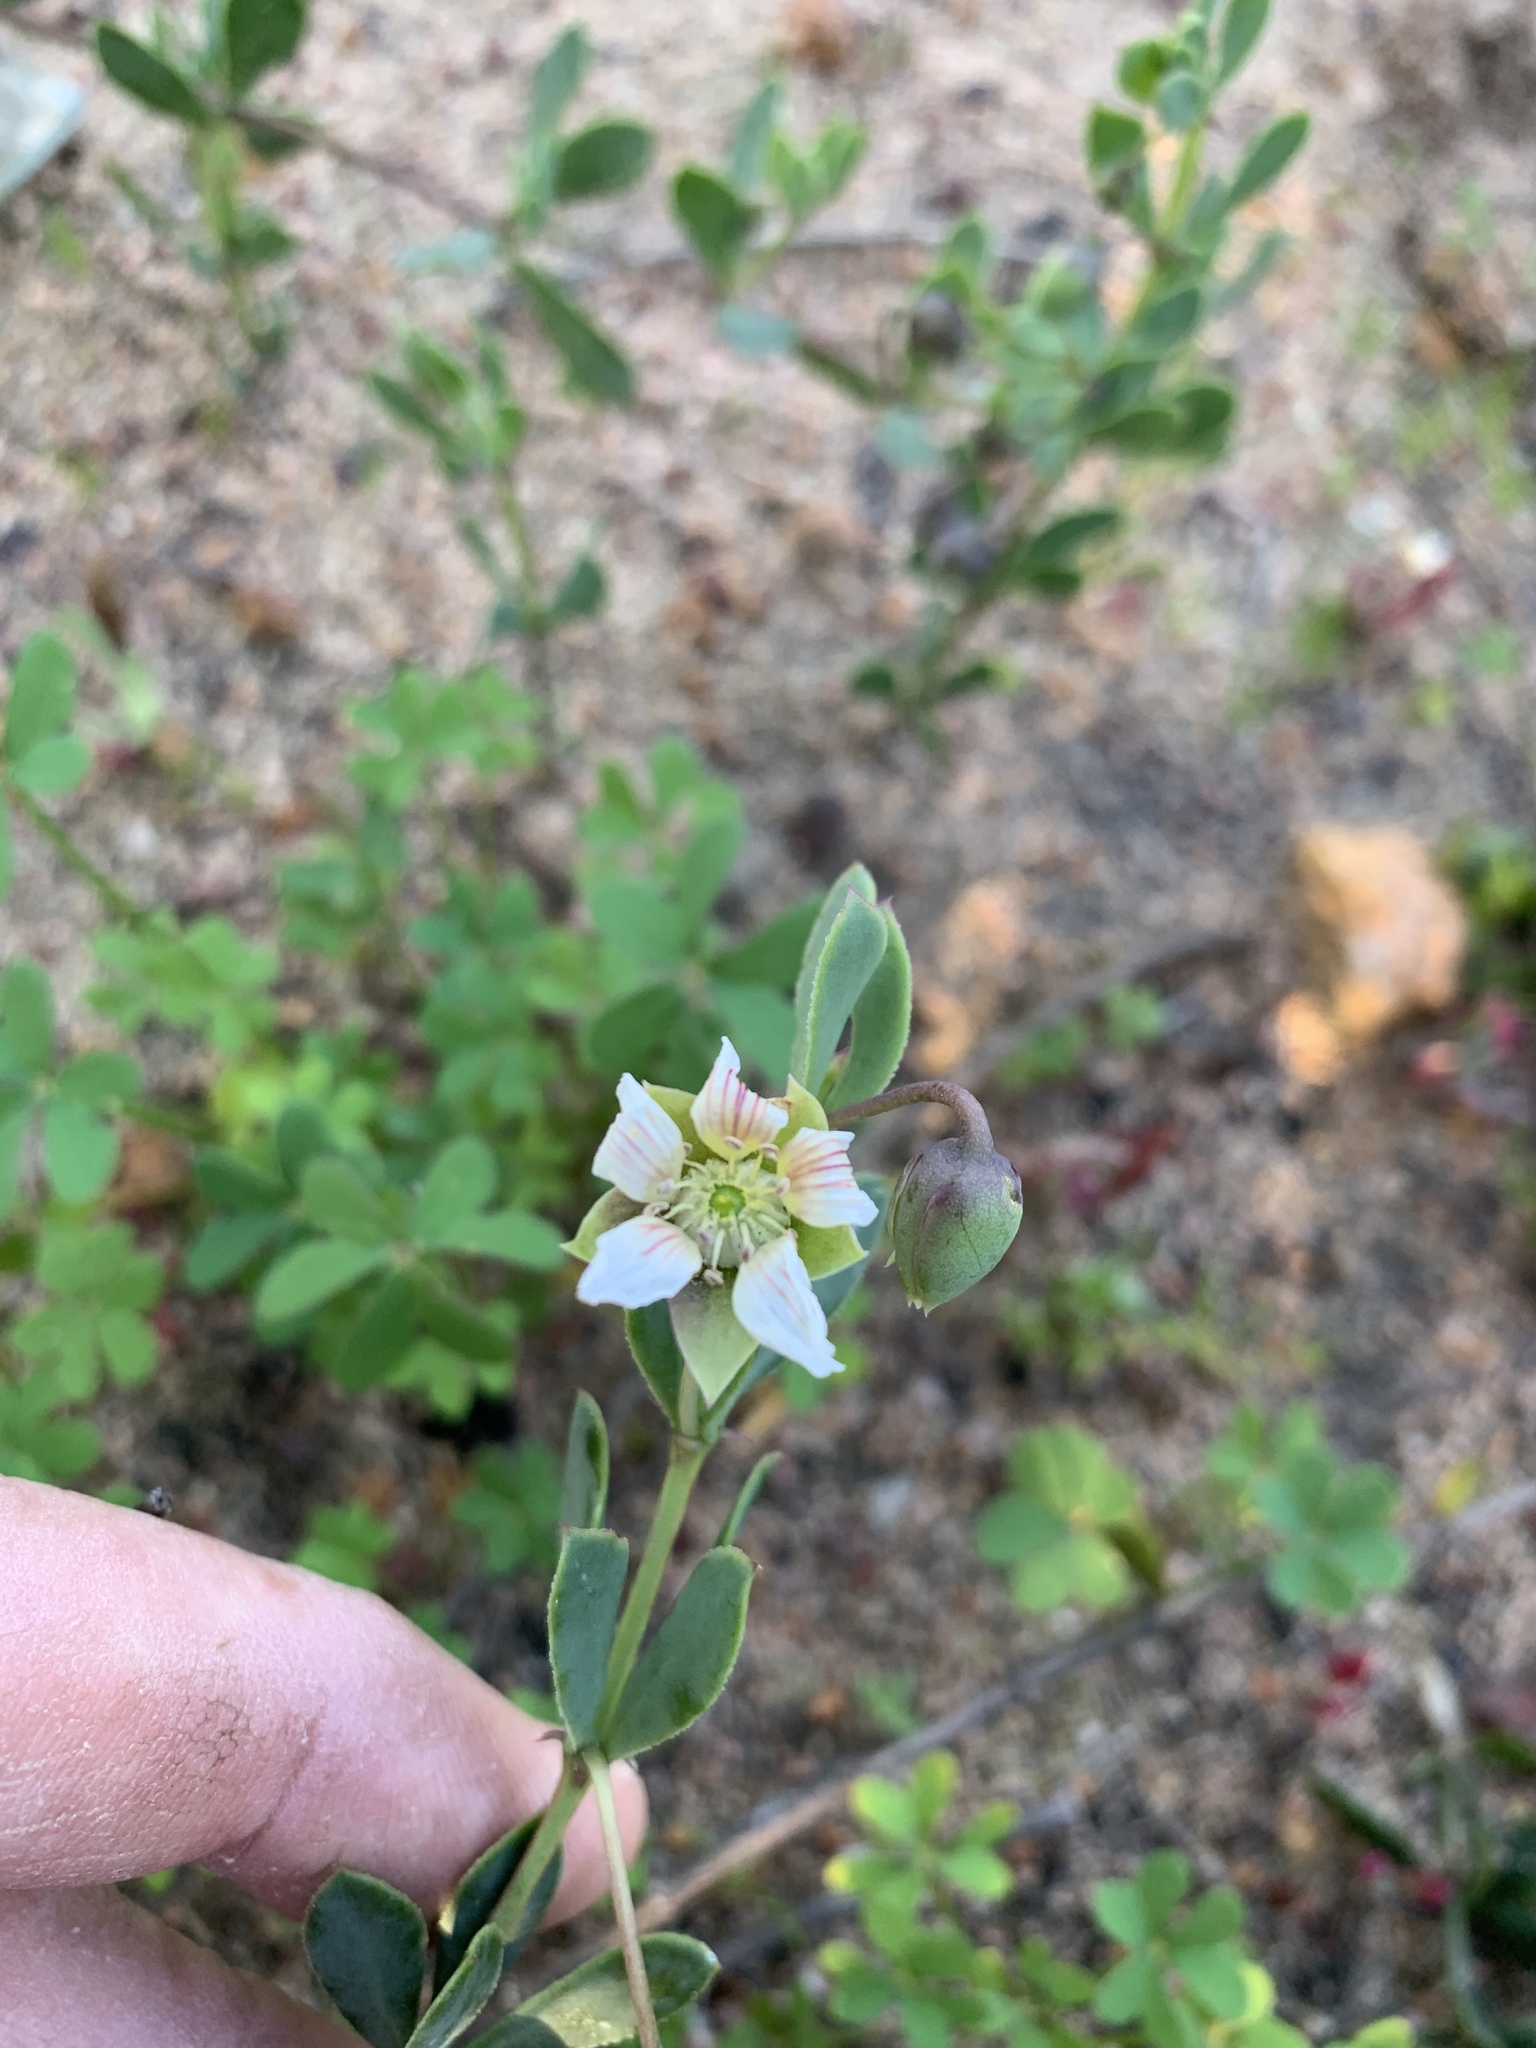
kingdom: Plantae
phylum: Tracheophyta
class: Magnoliopsida
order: Zygophyllales
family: Zygophyllaceae
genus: Roepera
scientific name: Roepera sessilifolia
